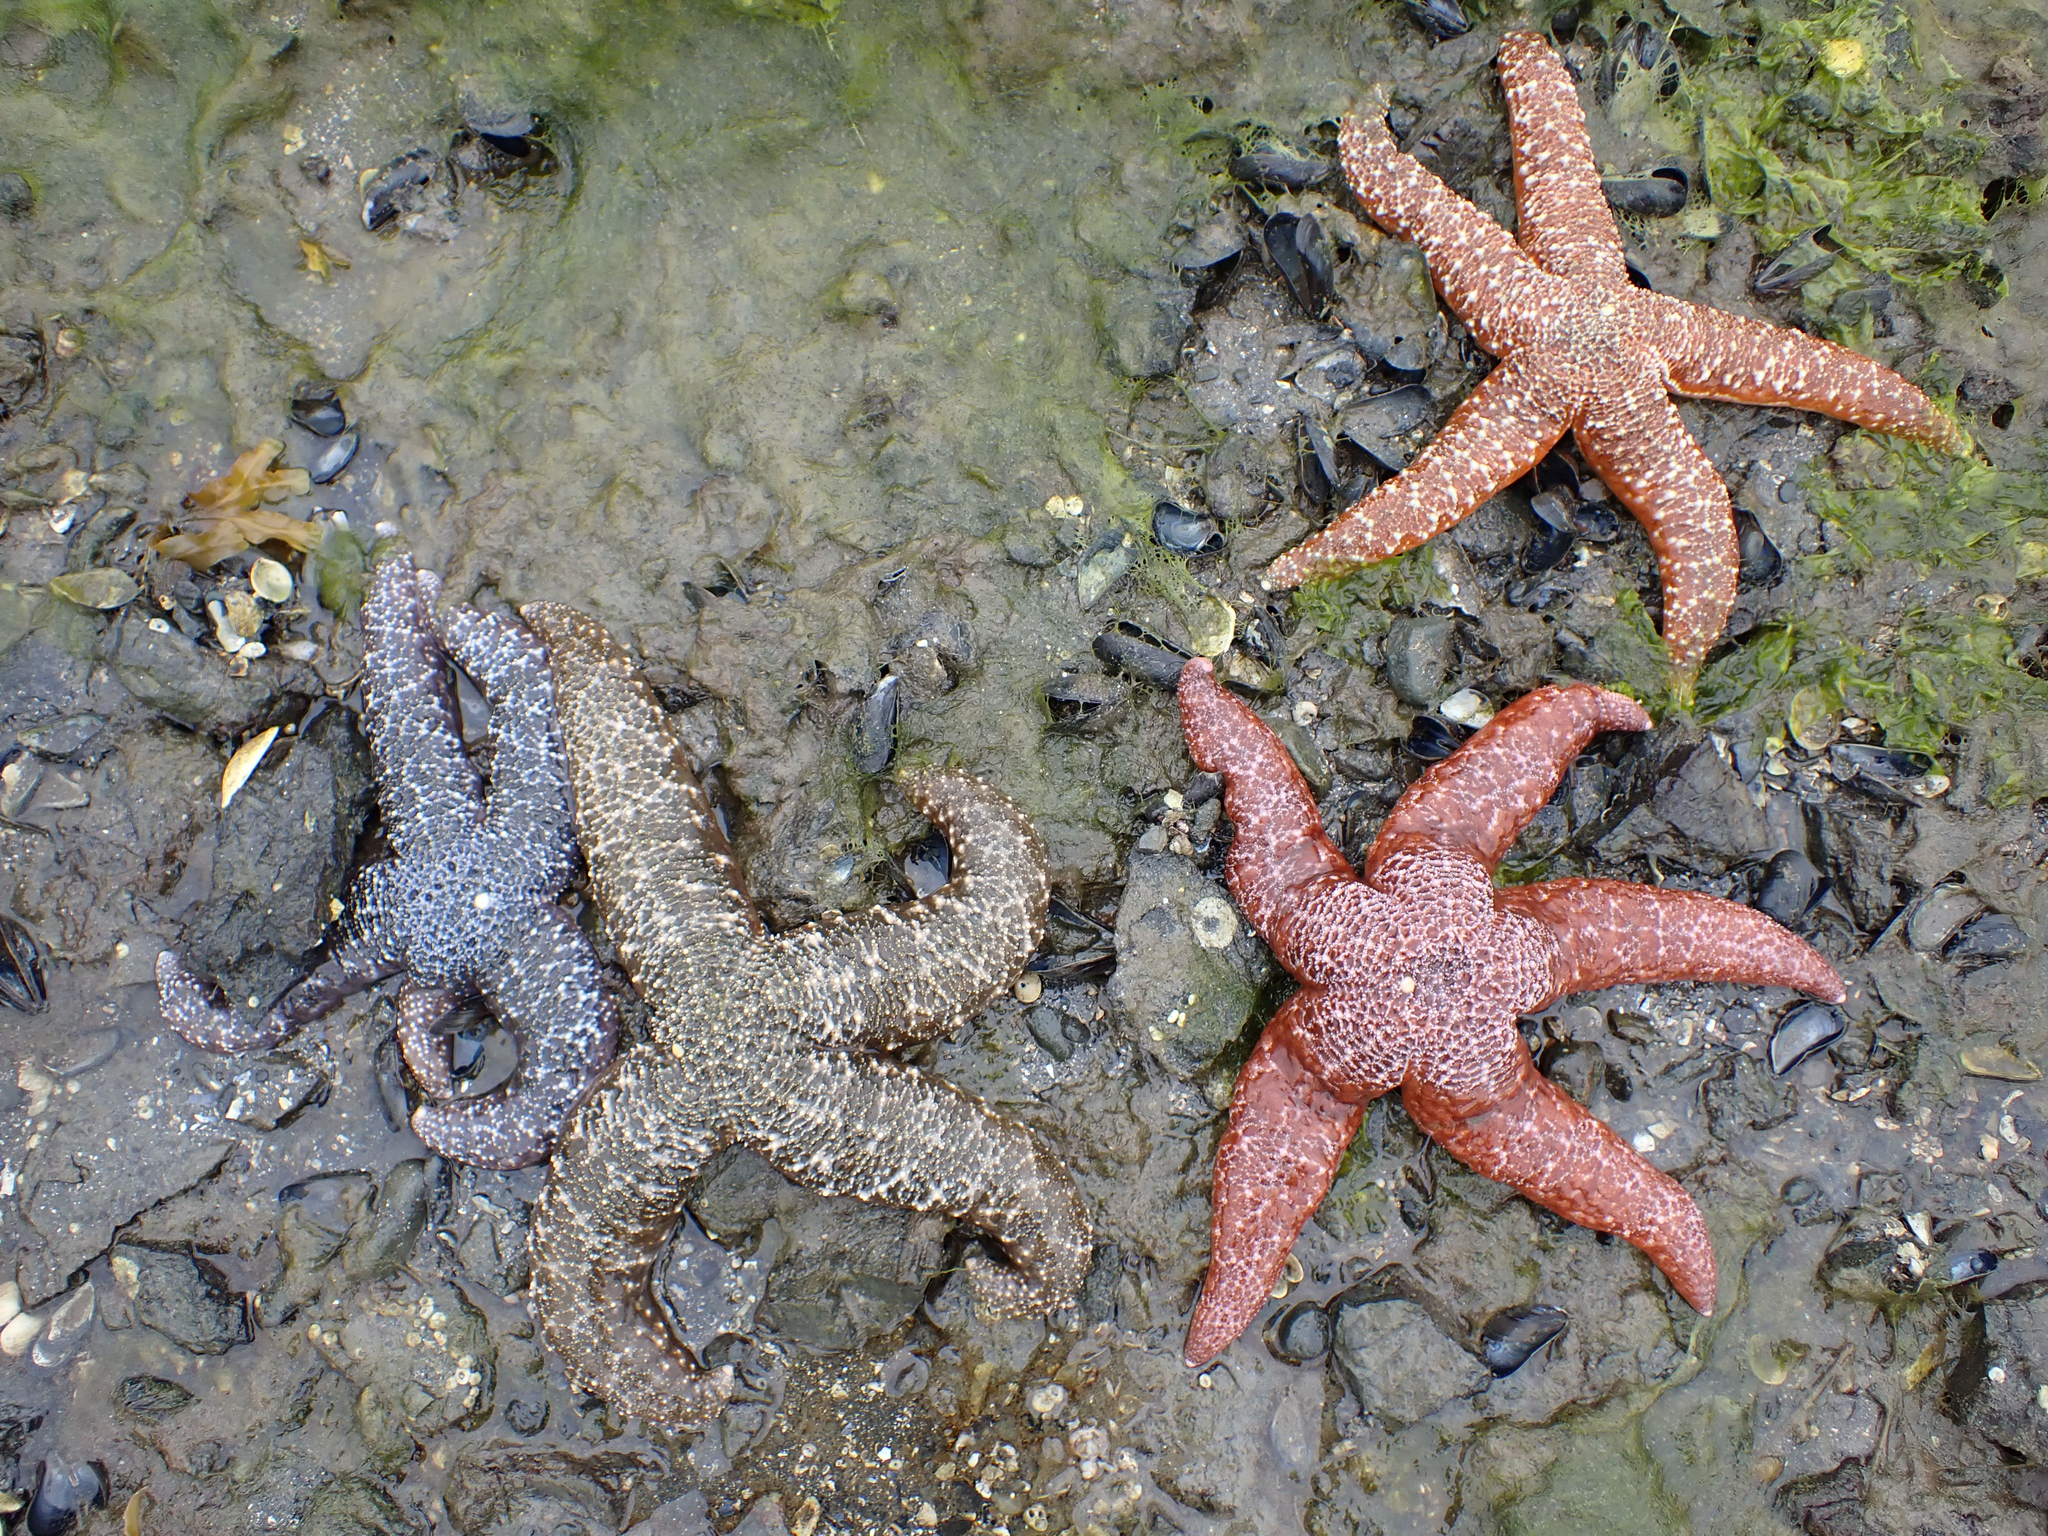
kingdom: Animalia
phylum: Echinodermata
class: Asteroidea
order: Forcipulatida
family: Asteriidae
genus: Evasterias
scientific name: Evasterias troschelii
